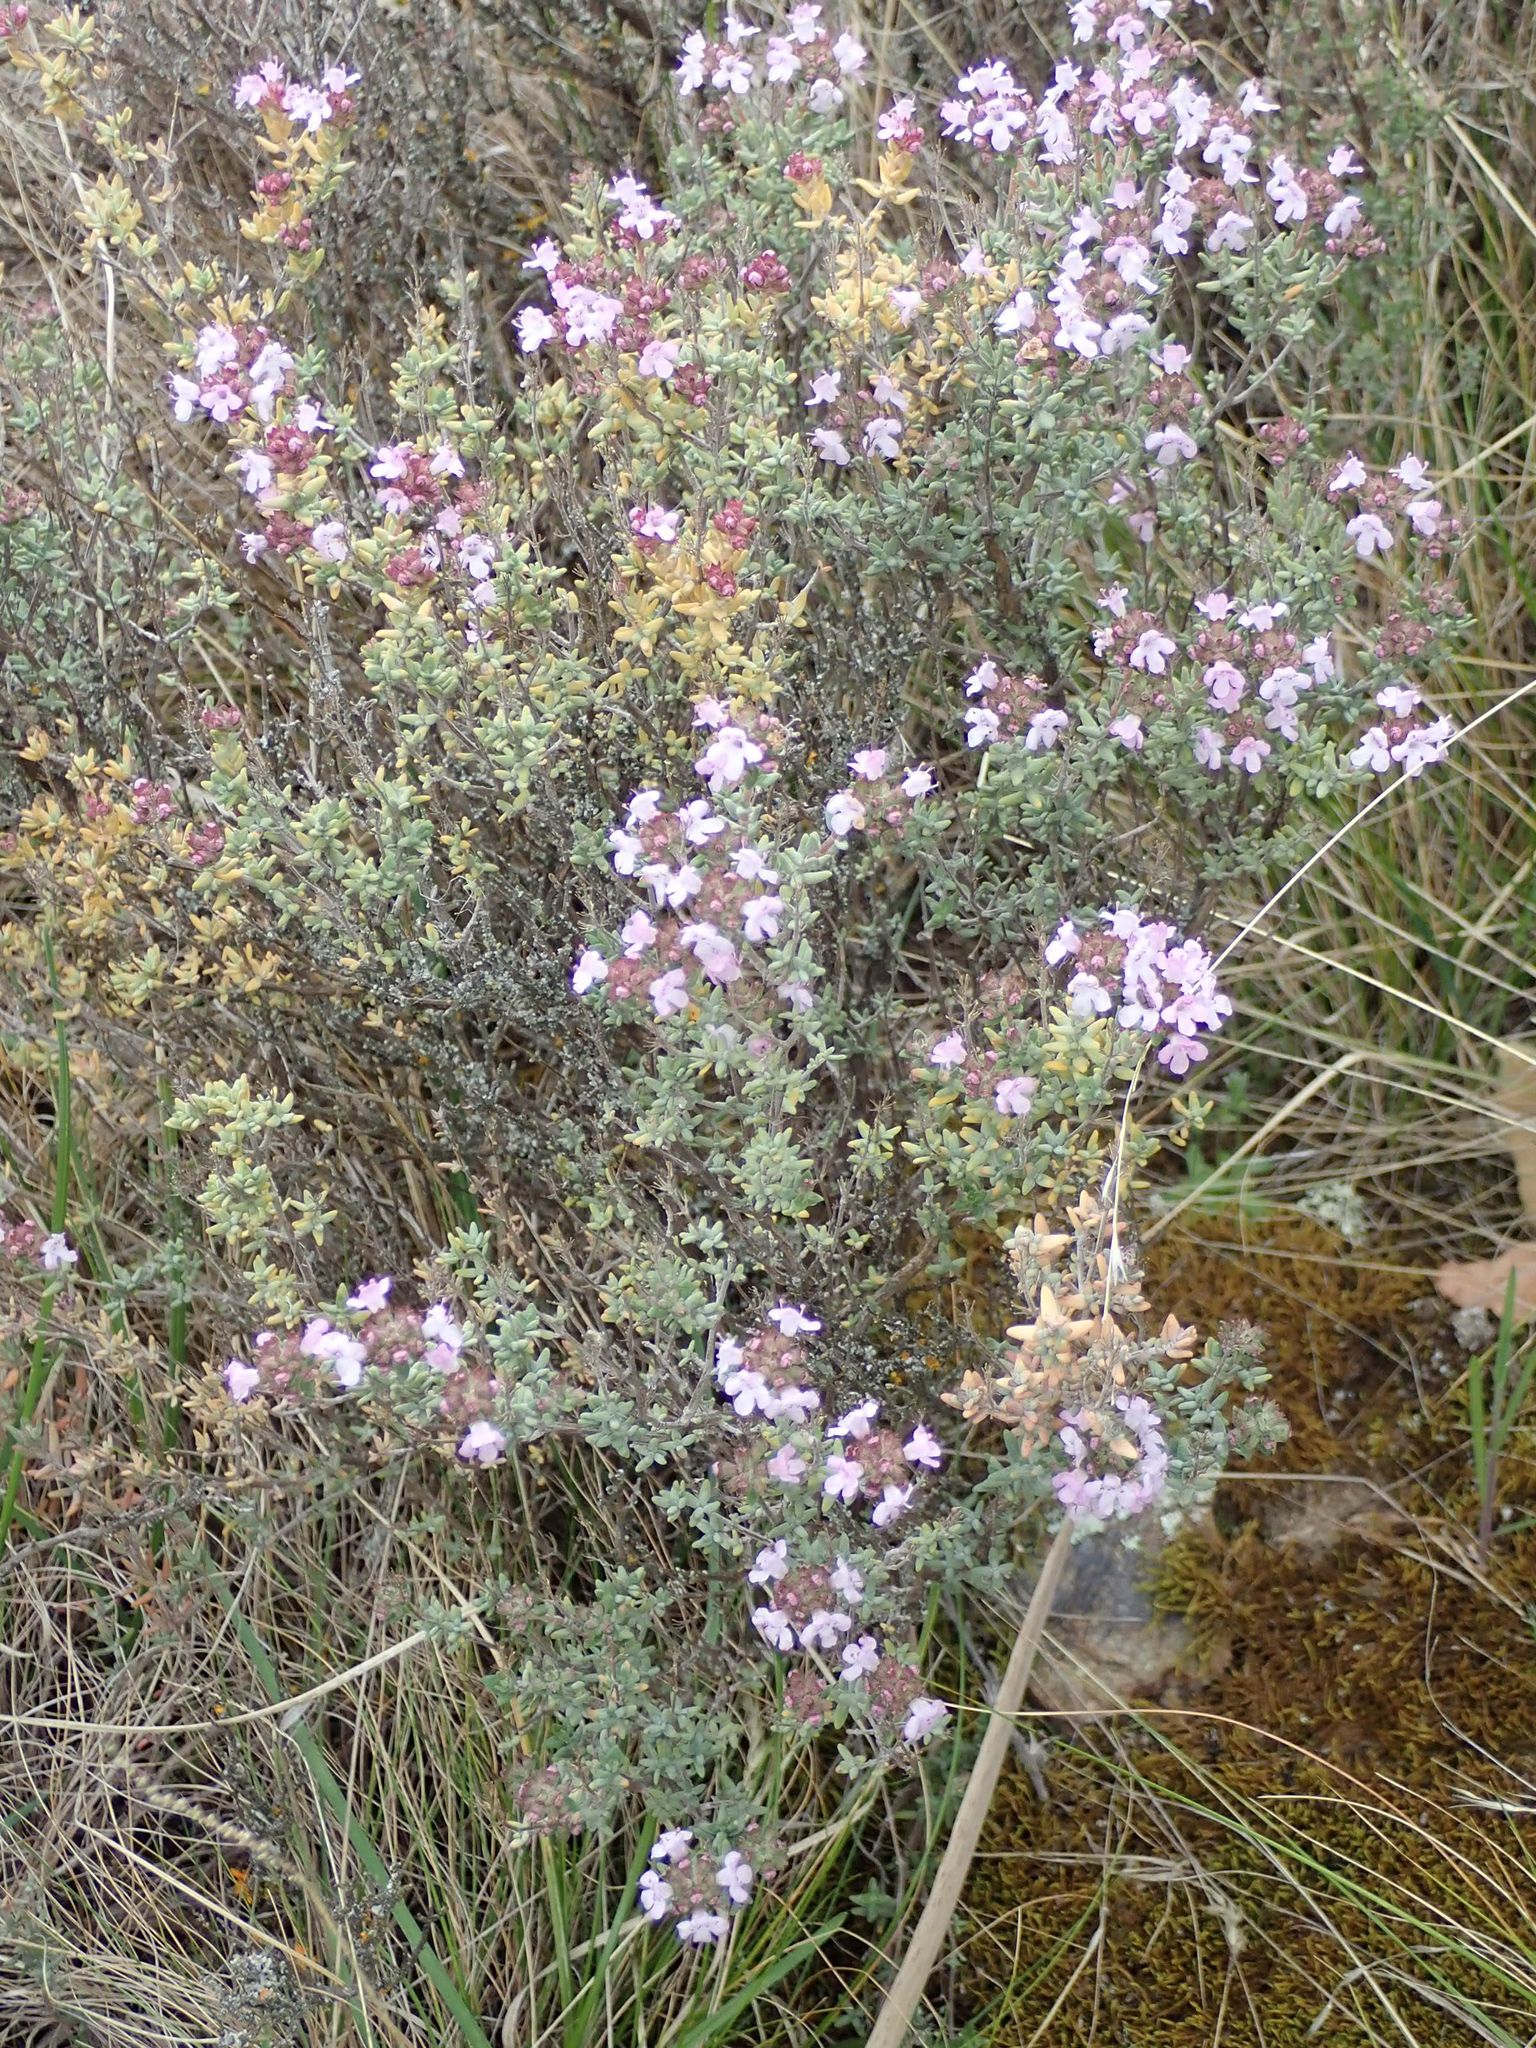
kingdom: Plantae
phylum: Tracheophyta
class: Magnoliopsida
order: Lamiales
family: Lamiaceae
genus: Thymus
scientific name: Thymus vulgaris
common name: Garden thyme
